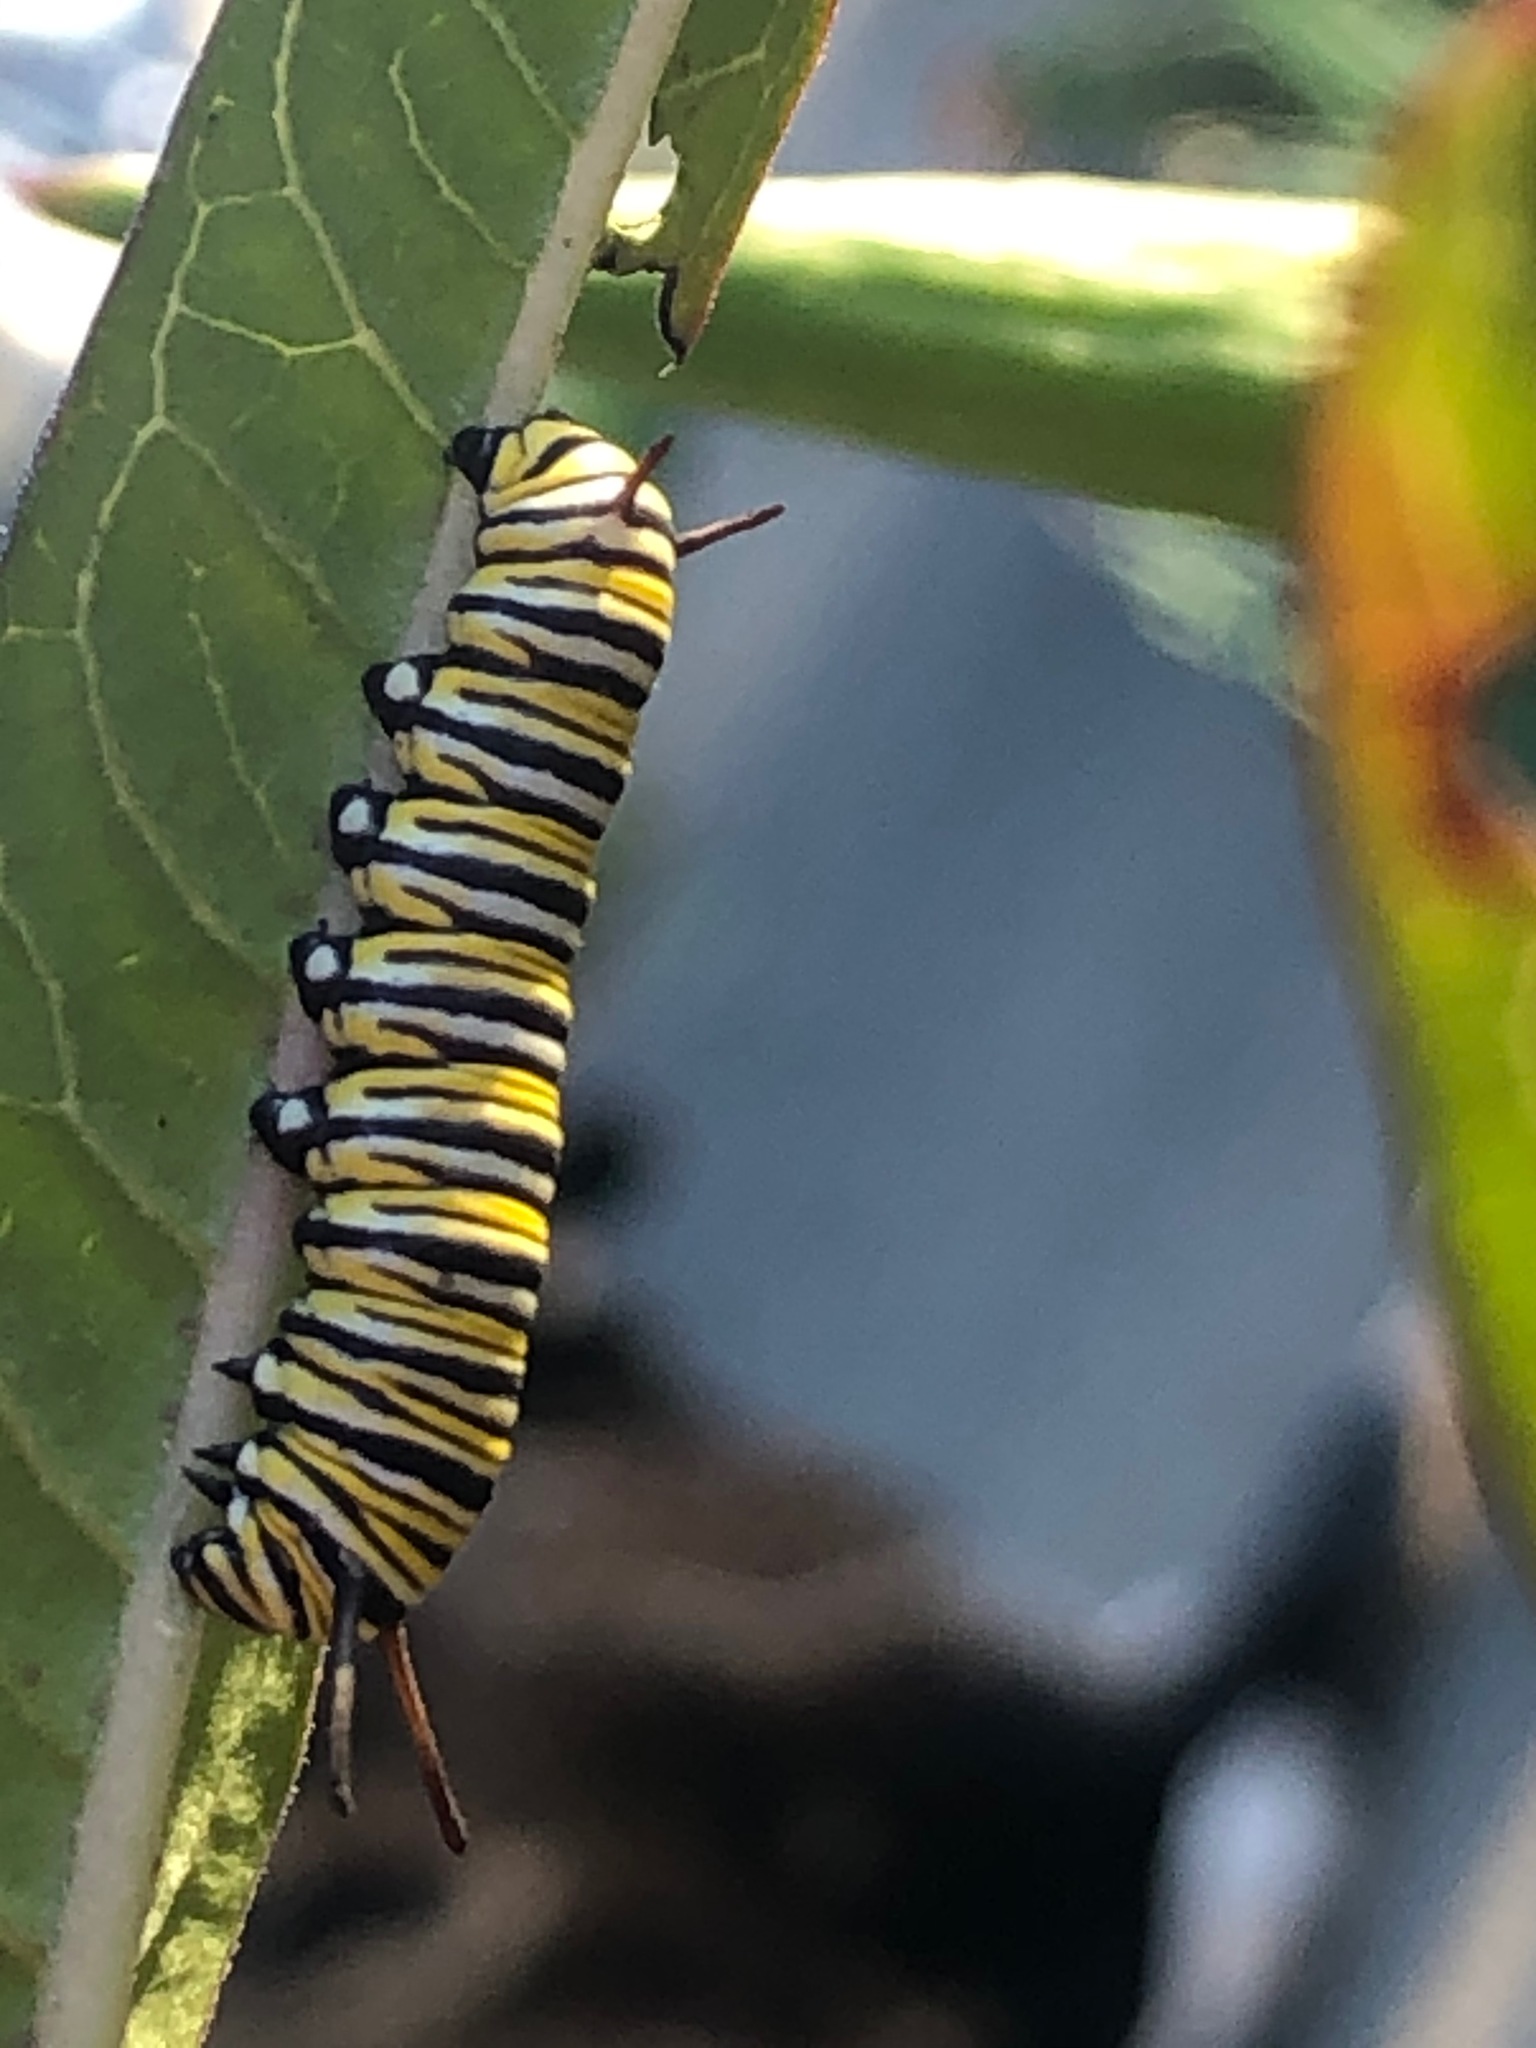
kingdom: Animalia
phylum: Arthropoda
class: Insecta
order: Lepidoptera
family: Nymphalidae
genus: Danaus
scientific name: Danaus plexippus
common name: Monarch
